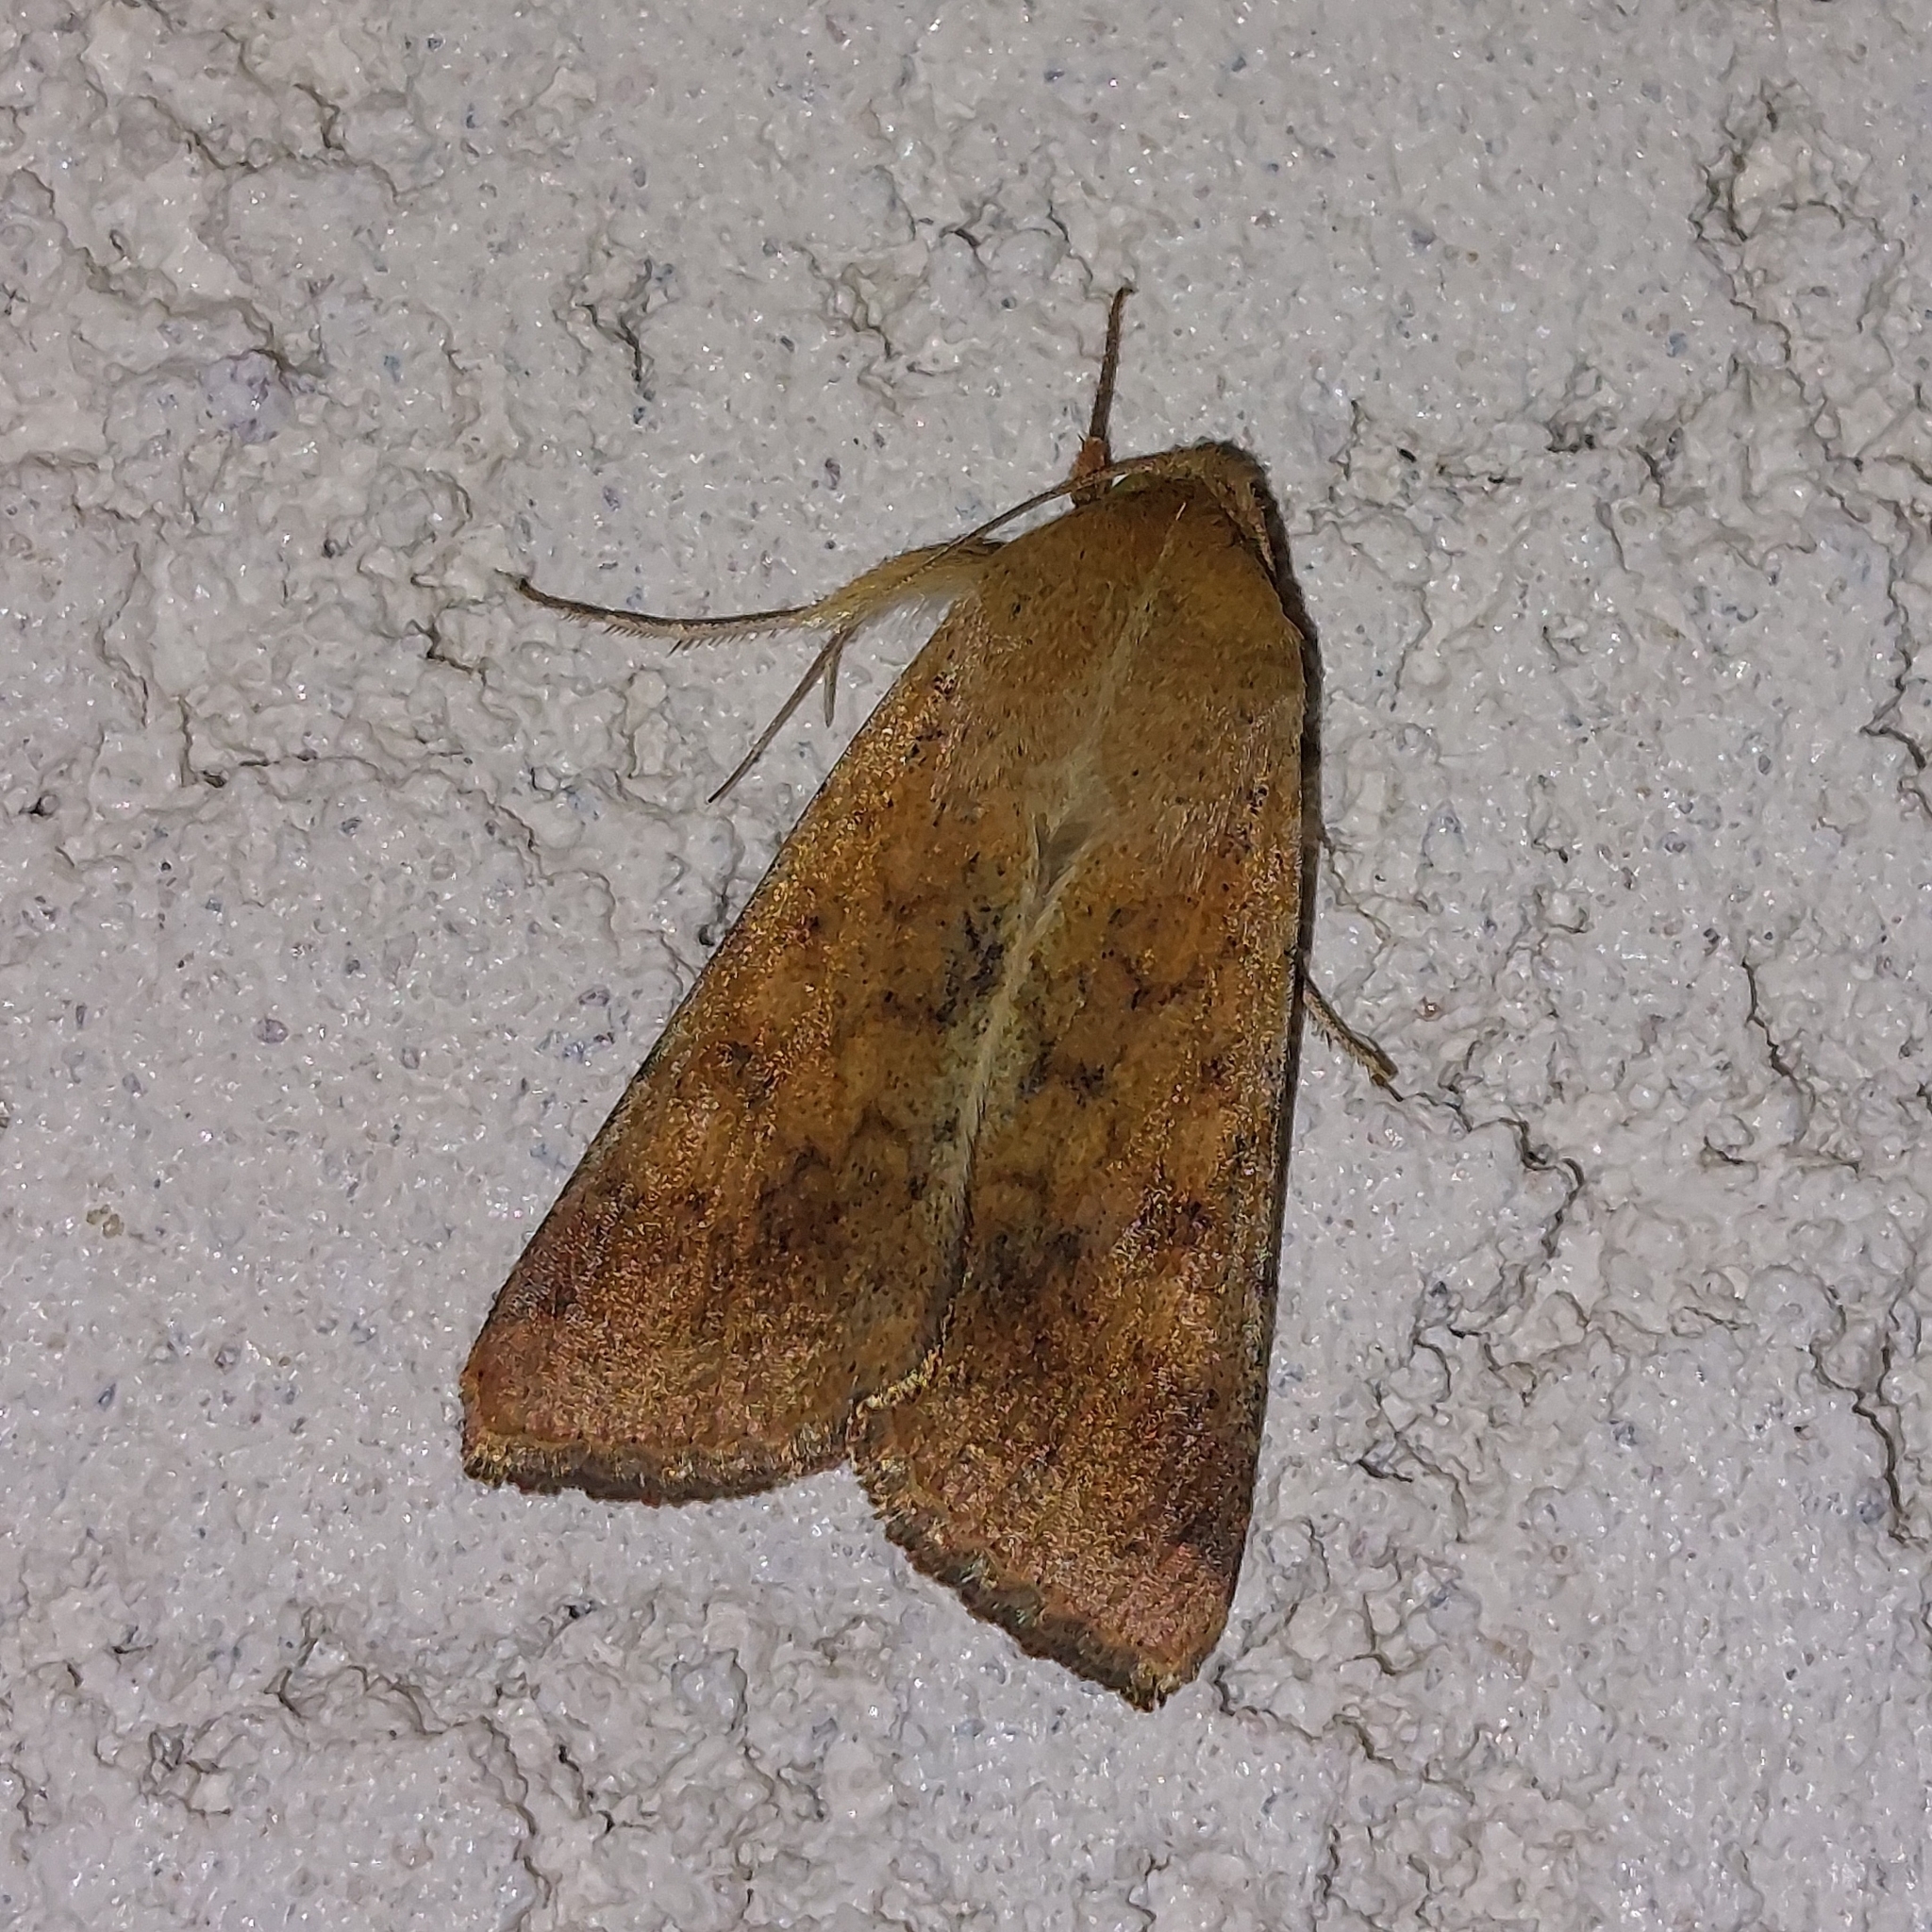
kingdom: Animalia
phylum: Arthropoda
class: Insecta
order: Lepidoptera
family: Noctuidae
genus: Helicoverpa
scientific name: Helicoverpa armigera
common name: Cotton bollworm
